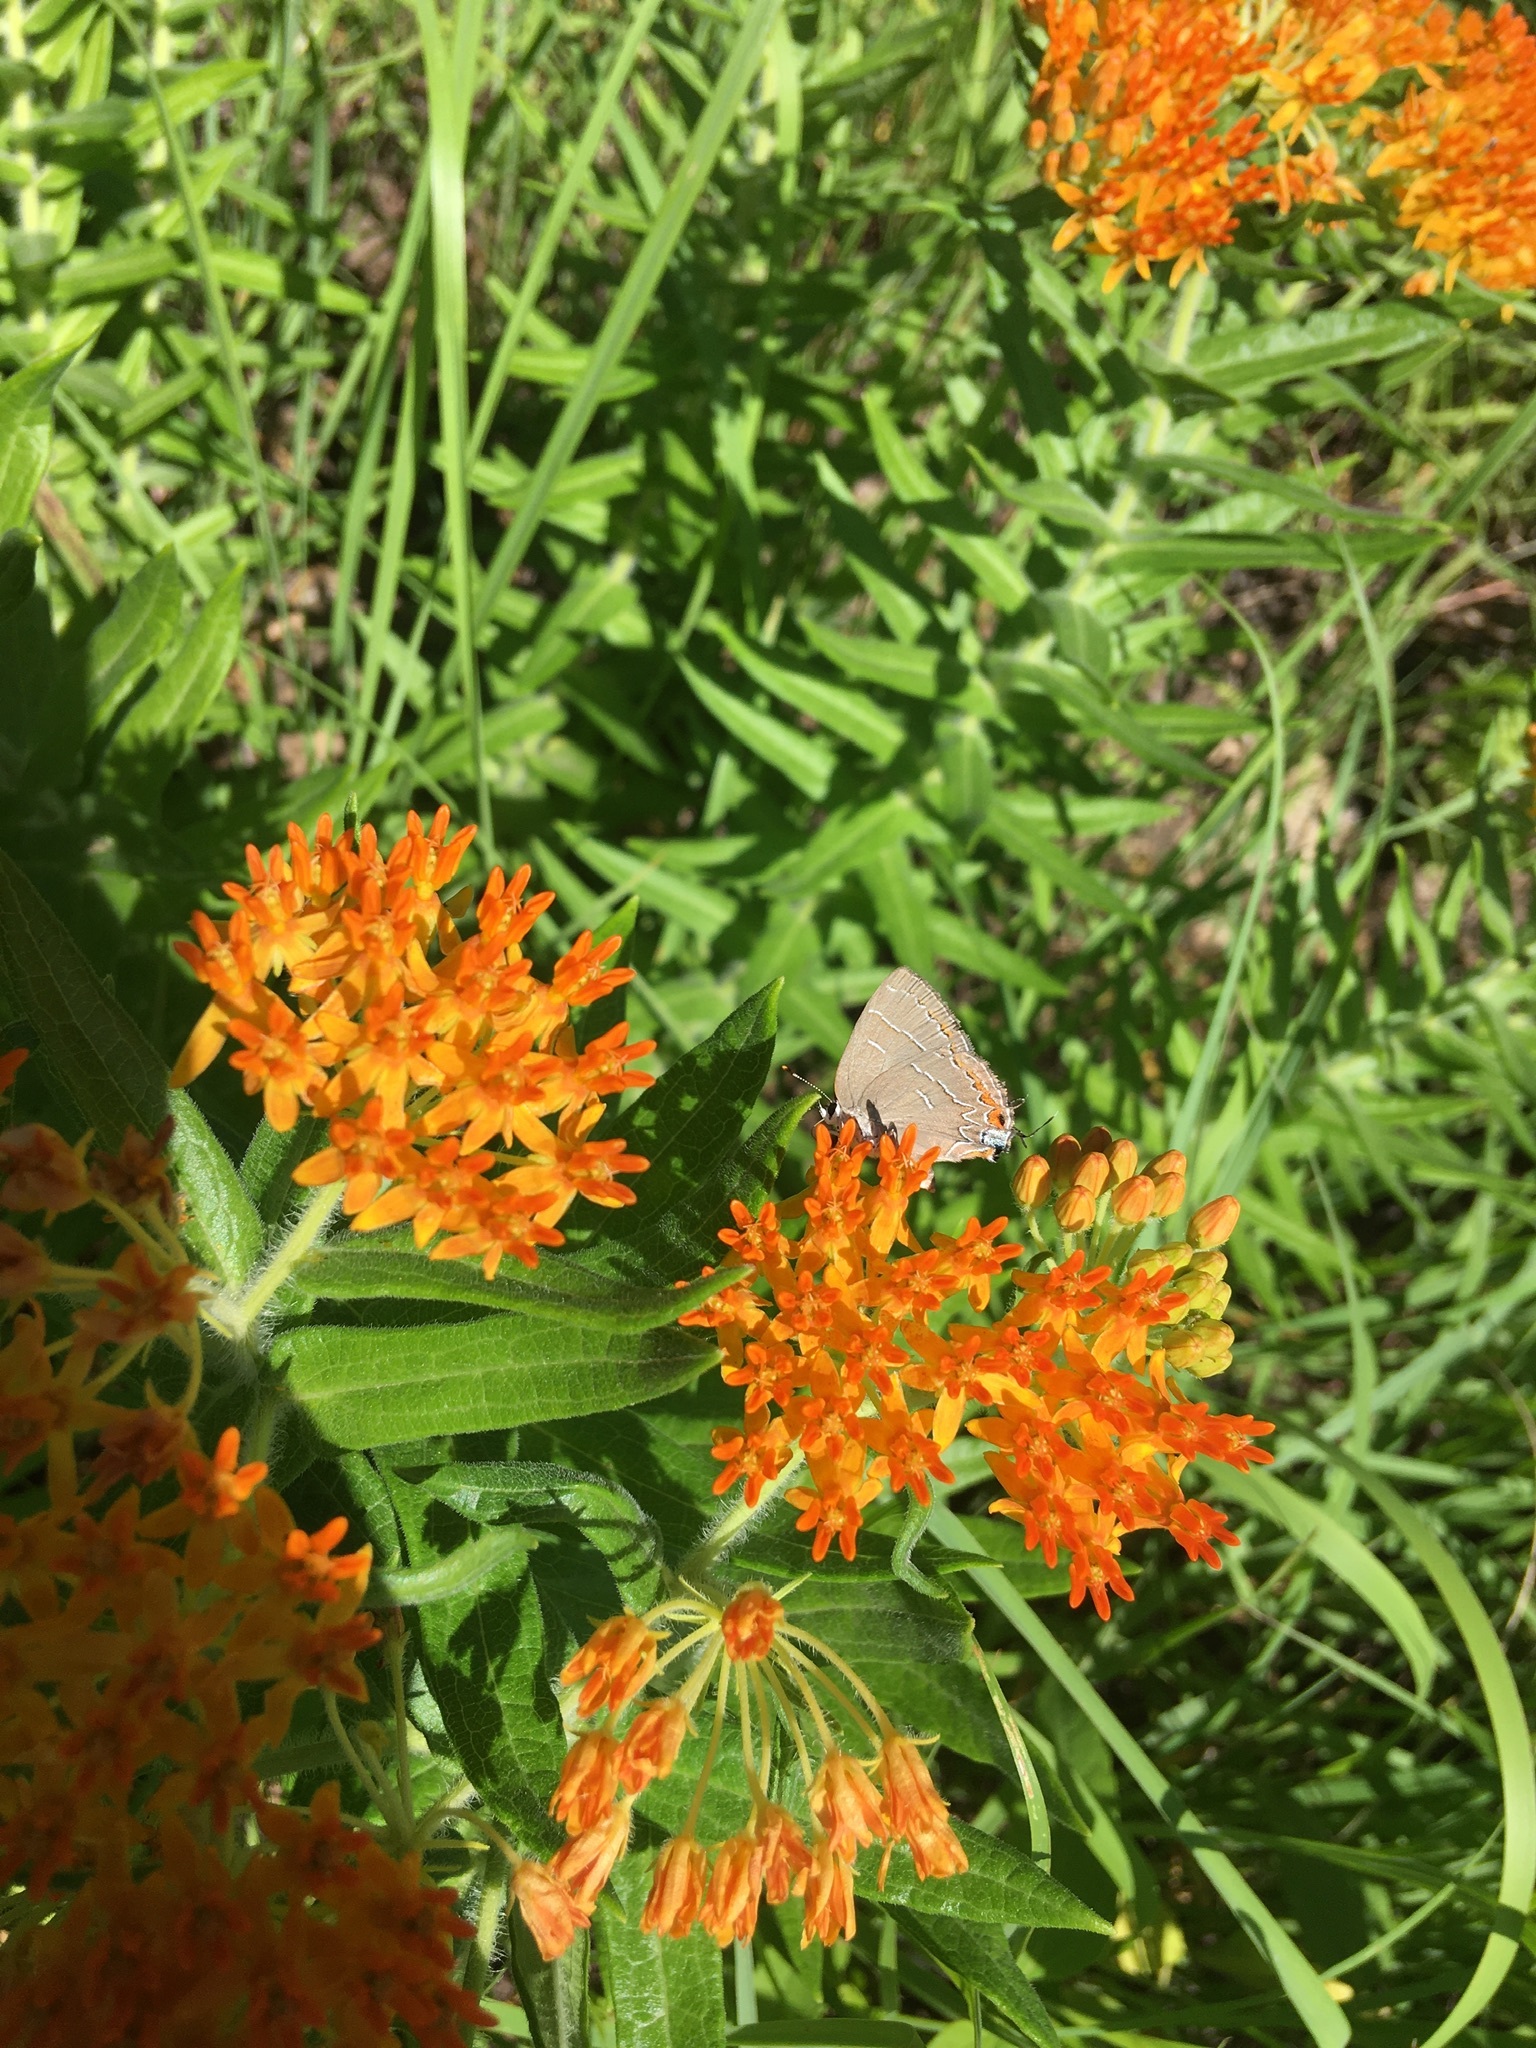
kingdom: Animalia
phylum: Arthropoda
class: Insecta
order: Lepidoptera
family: Lycaenidae
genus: Phaeostrymon
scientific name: Phaeostrymon alcestis
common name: Soapberry hairstreak
